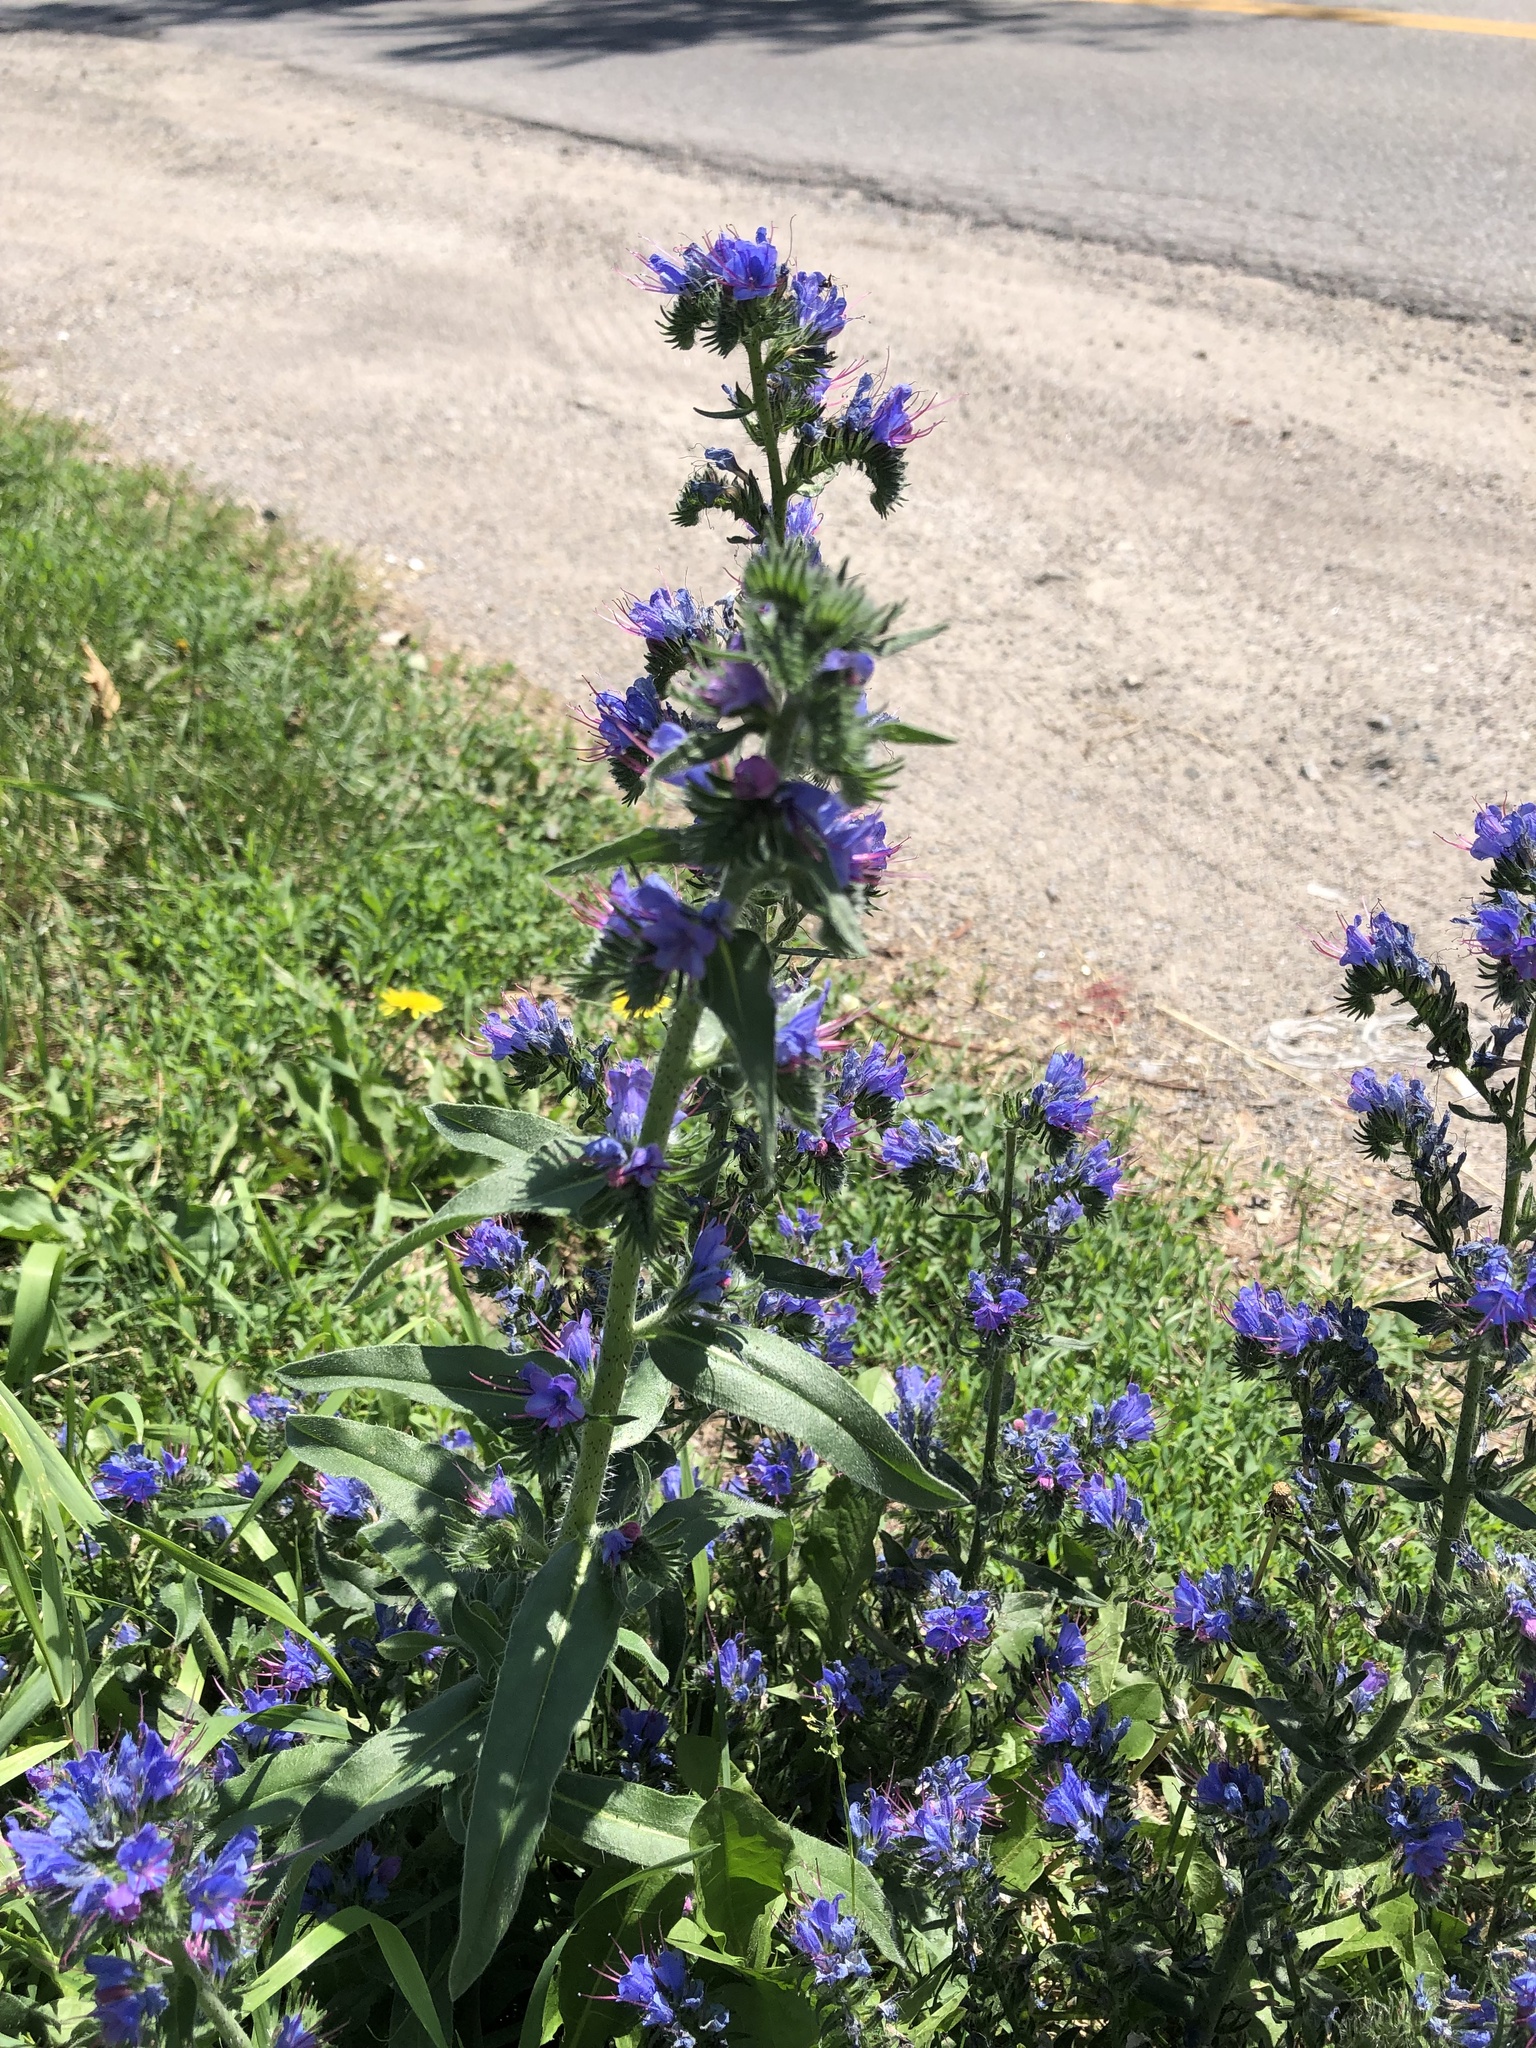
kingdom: Plantae
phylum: Tracheophyta
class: Magnoliopsida
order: Boraginales
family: Boraginaceae
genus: Echium
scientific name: Echium vulgare
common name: Common viper's bugloss
